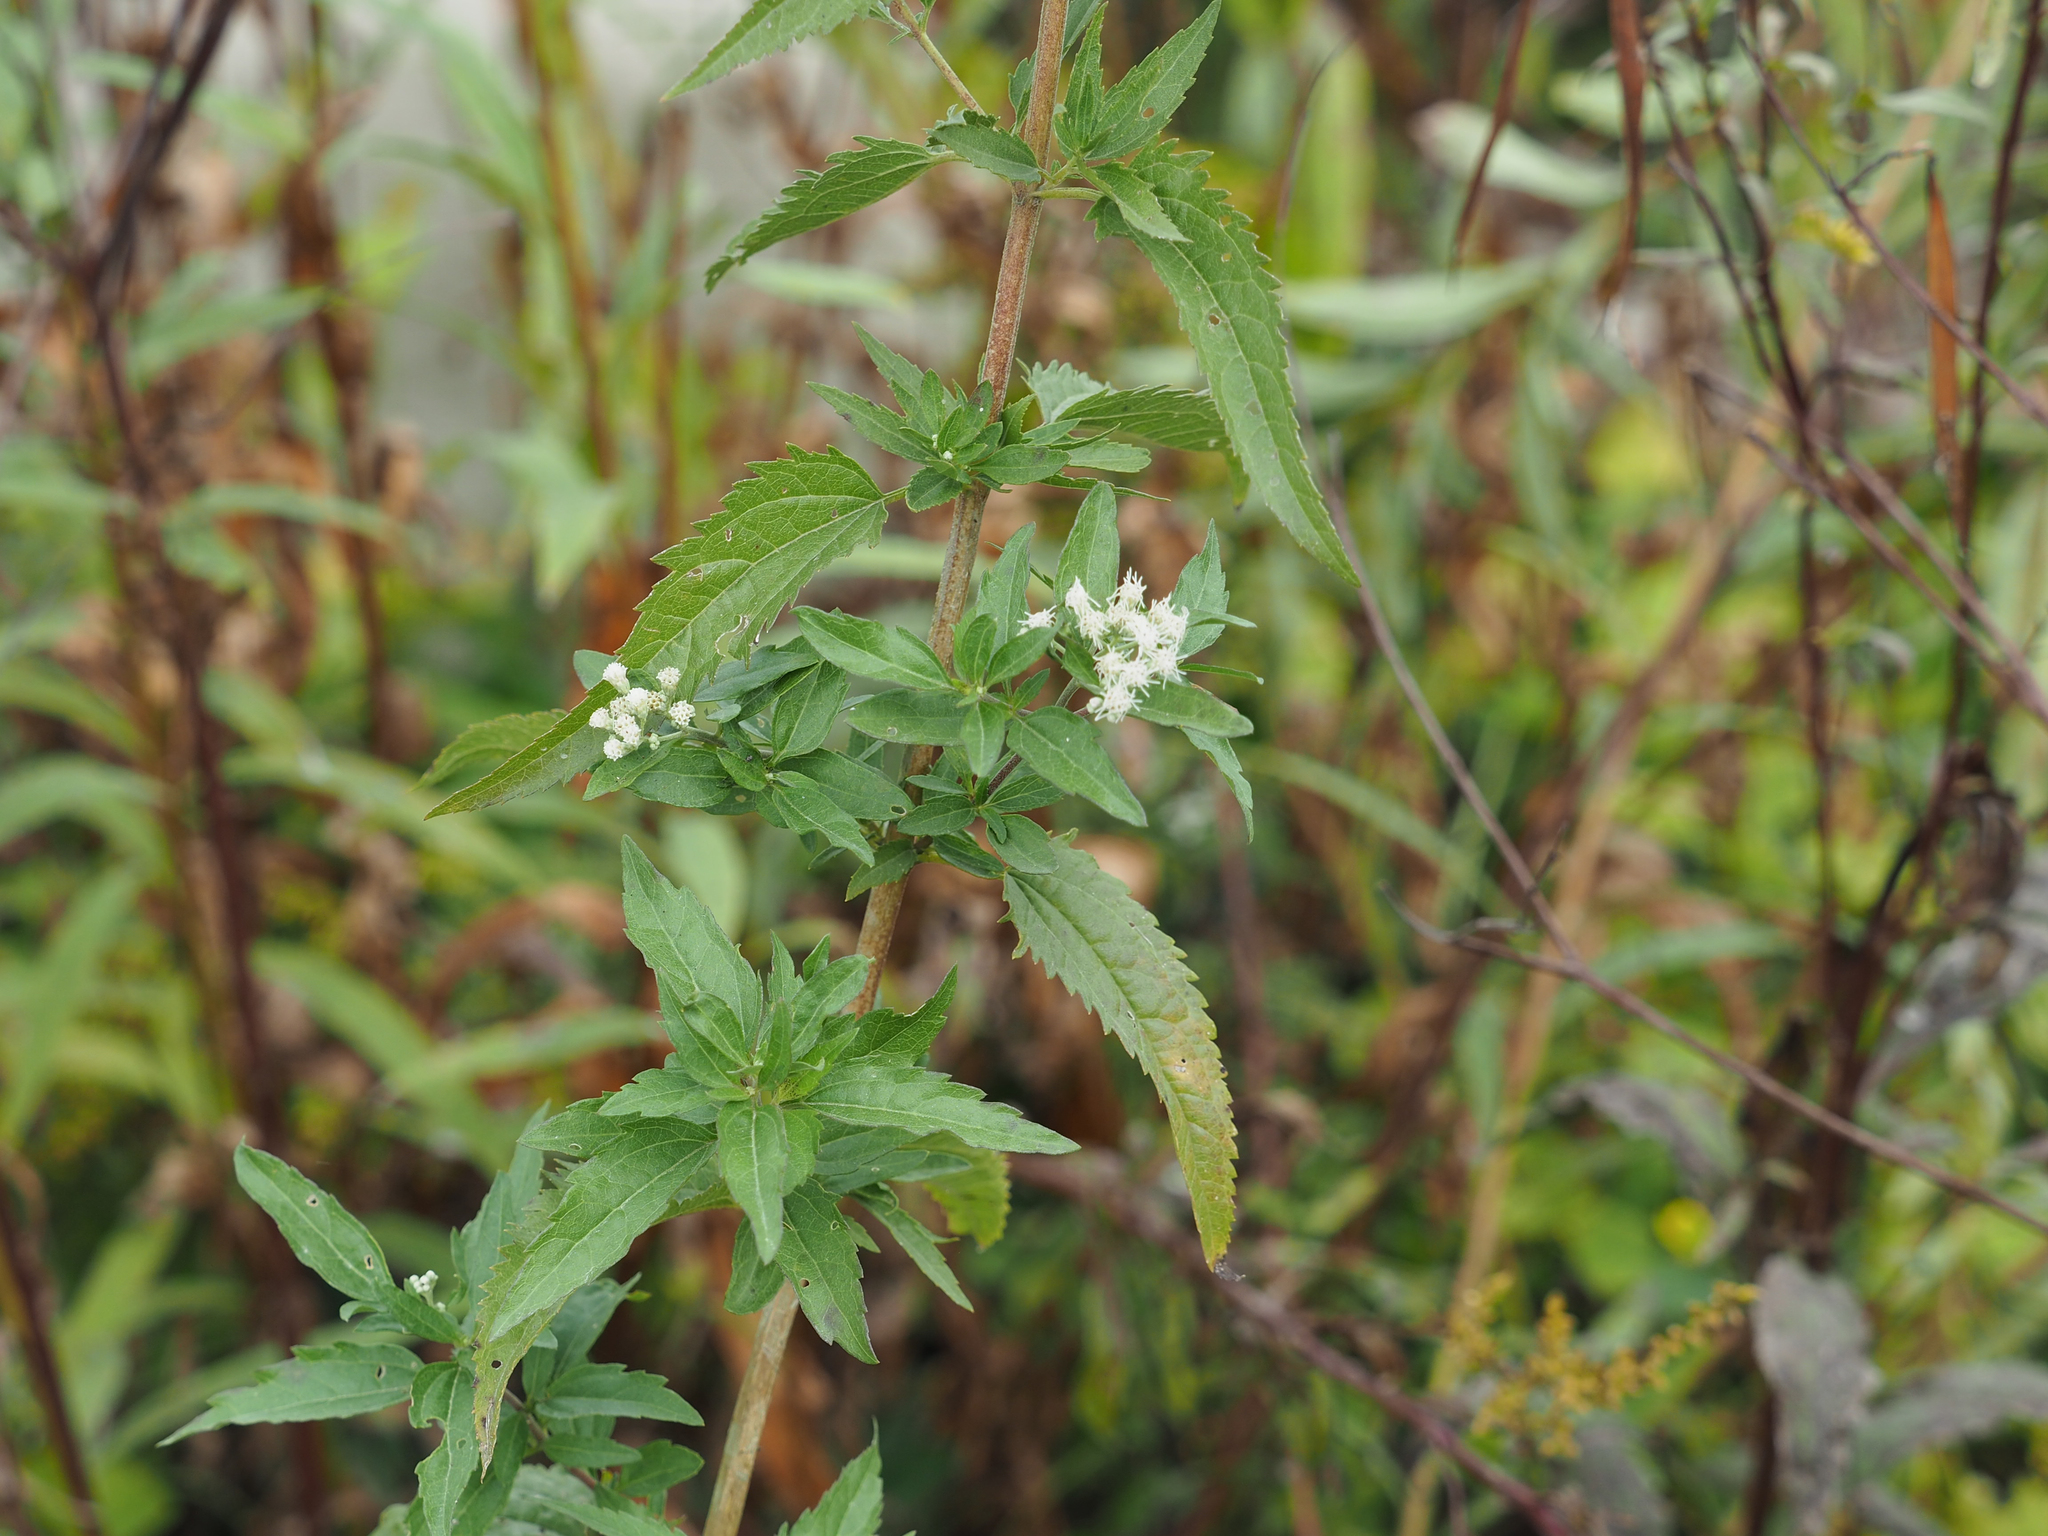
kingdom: Plantae
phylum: Tracheophyta
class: Magnoliopsida
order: Asterales
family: Asteraceae
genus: Eupatorium
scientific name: Eupatorium serotinum
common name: Late boneset
